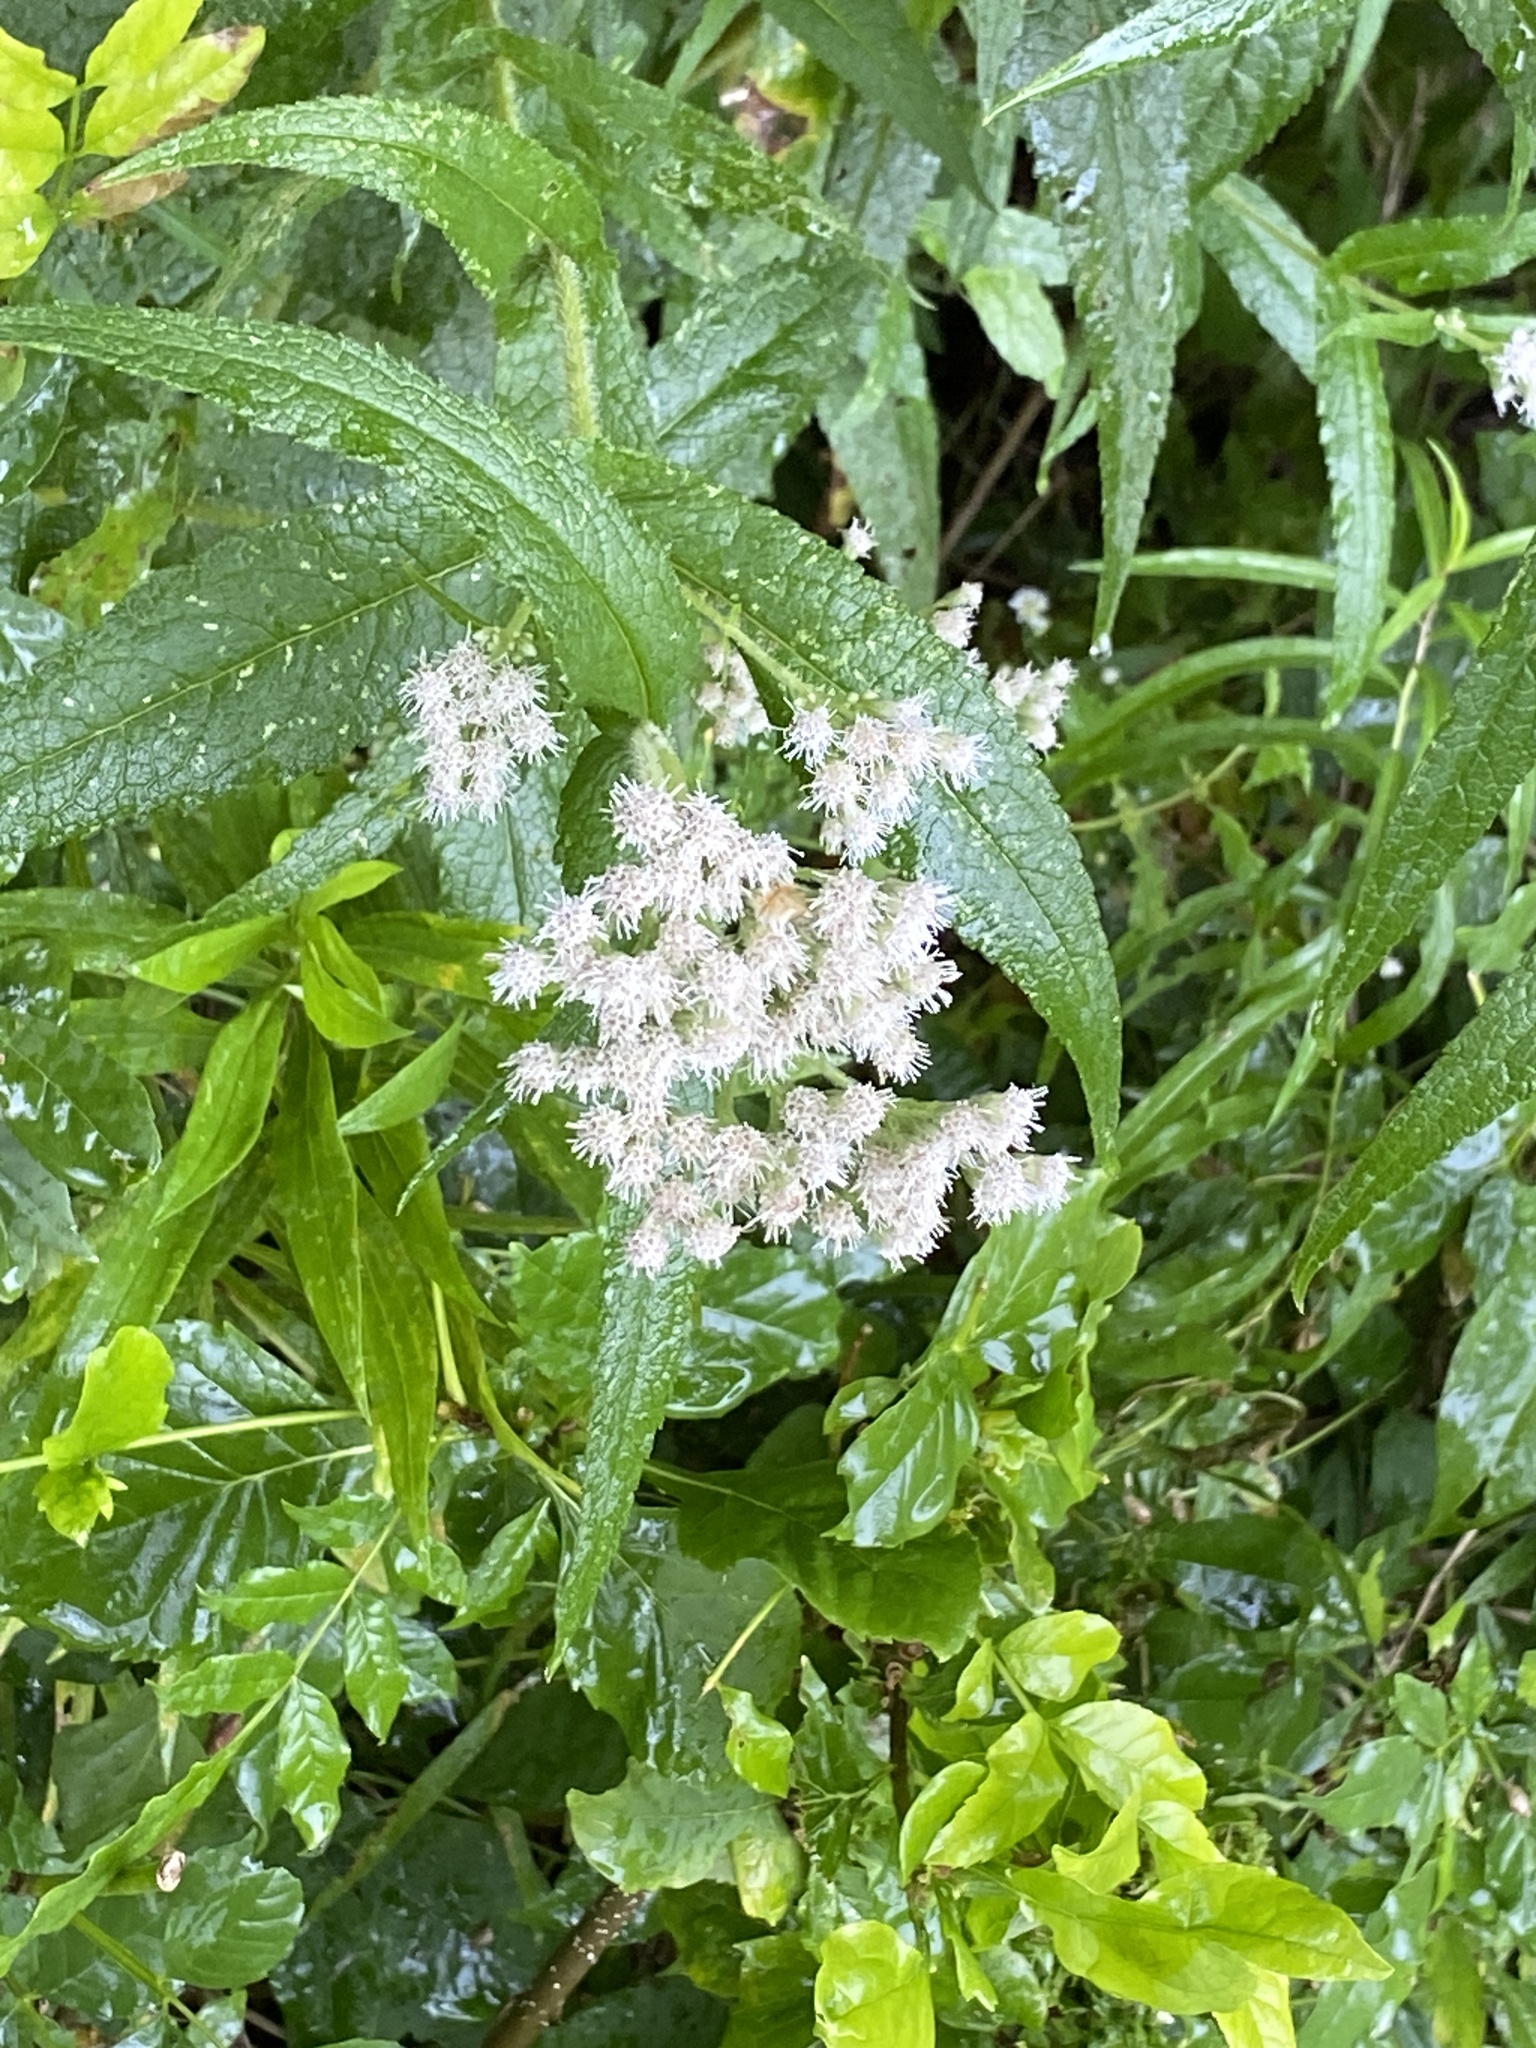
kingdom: Plantae
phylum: Tracheophyta
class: Magnoliopsida
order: Asterales
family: Asteraceae
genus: Eupatorium
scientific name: Eupatorium perfoliatum
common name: Boneset
